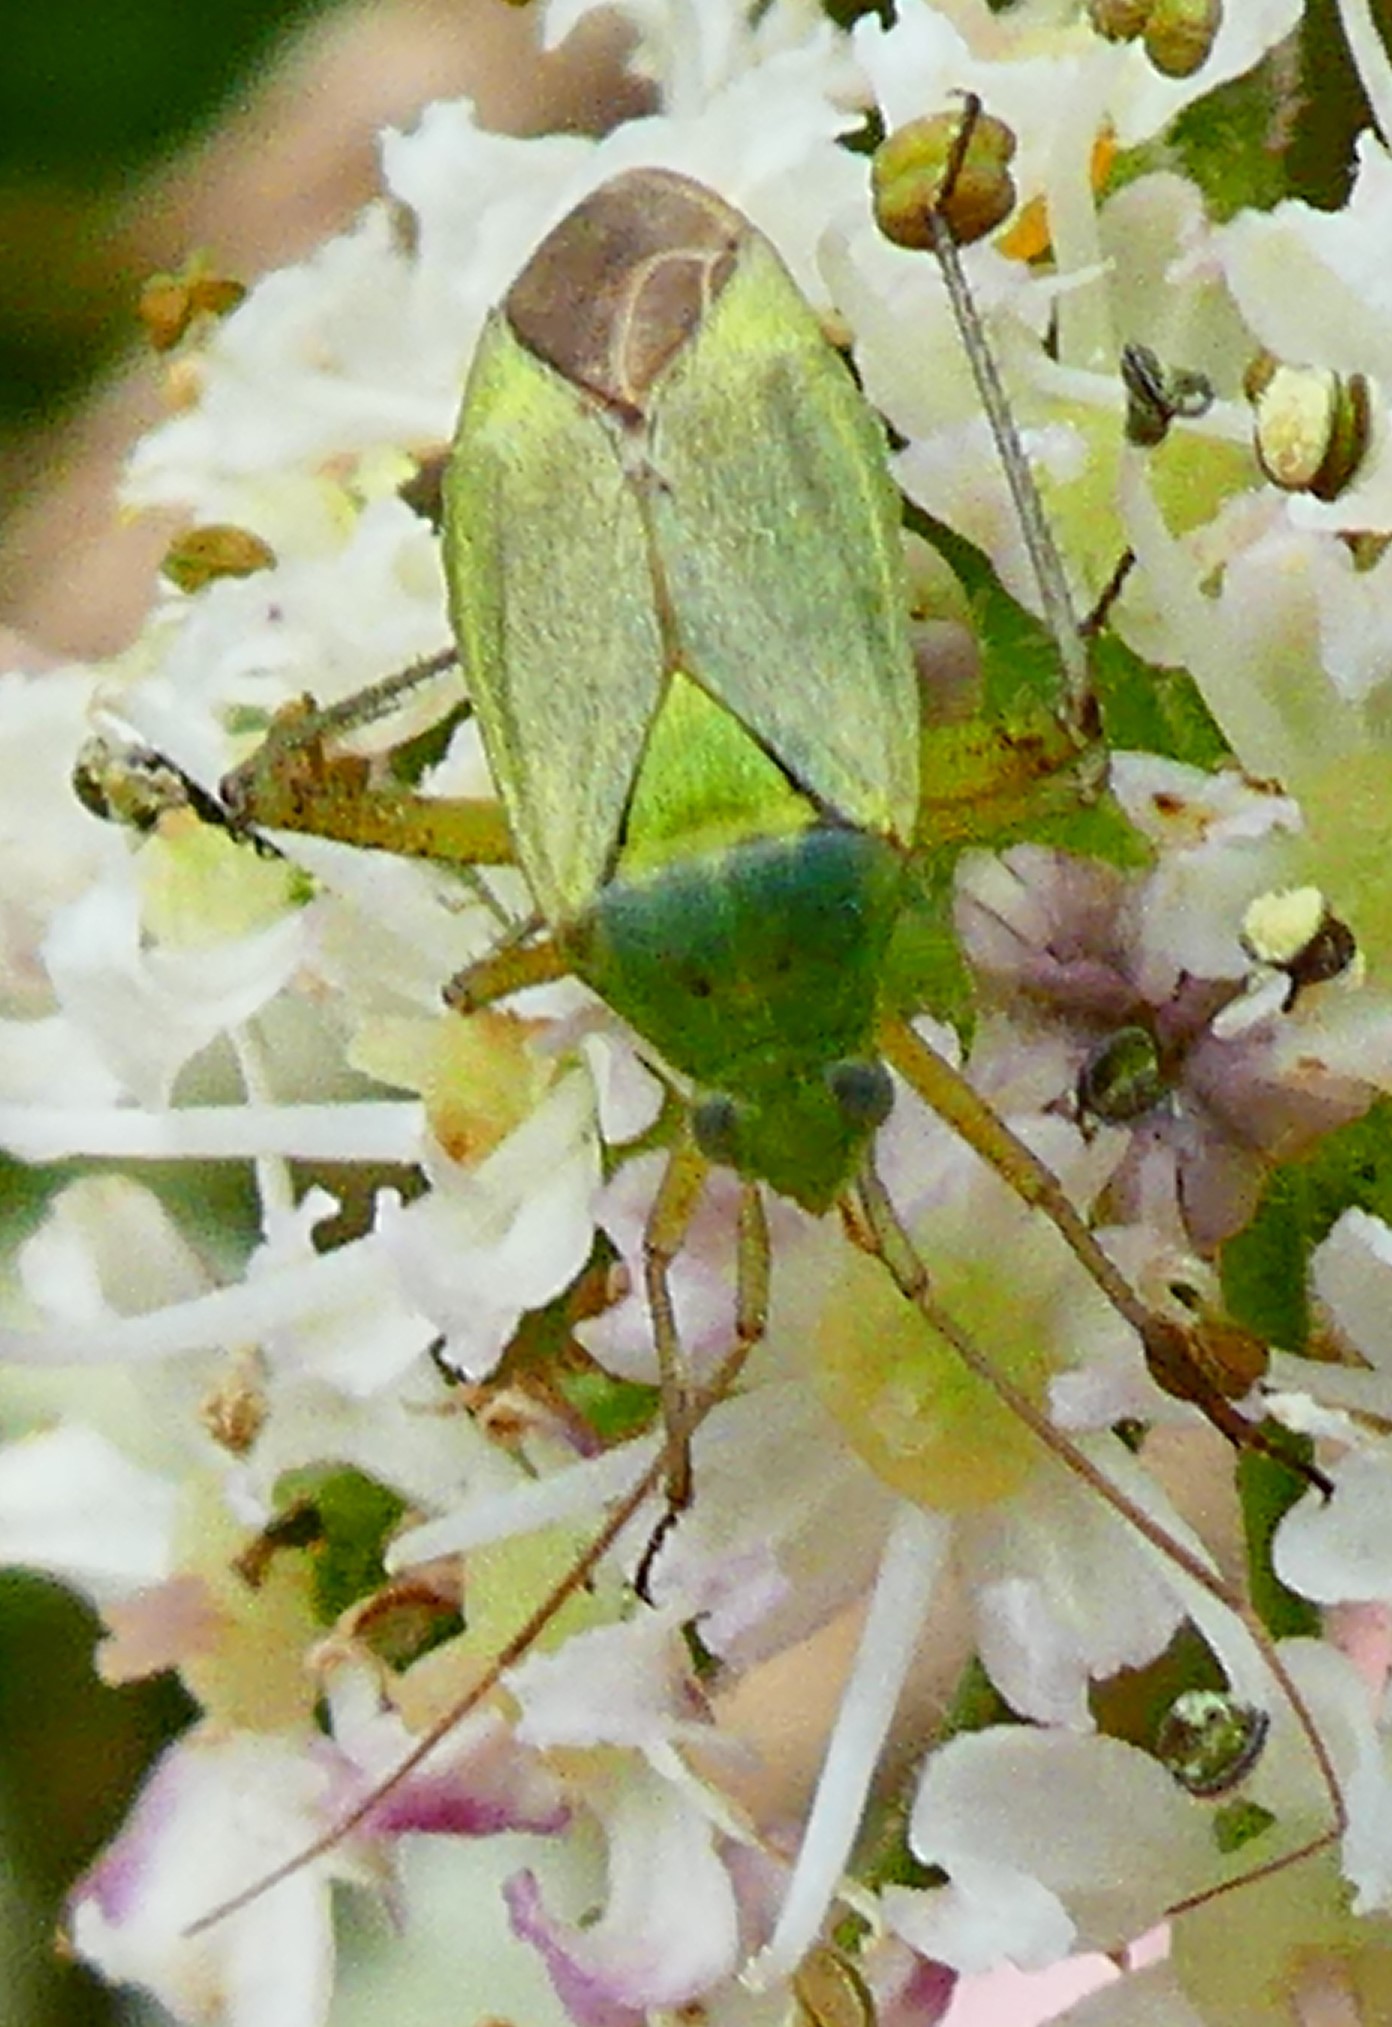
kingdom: Animalia
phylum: Arthropoda
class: Insecta
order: Hemiptera
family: Miridae
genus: Closterotomus
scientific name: Closterotomus norvegicus
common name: Plant bug
